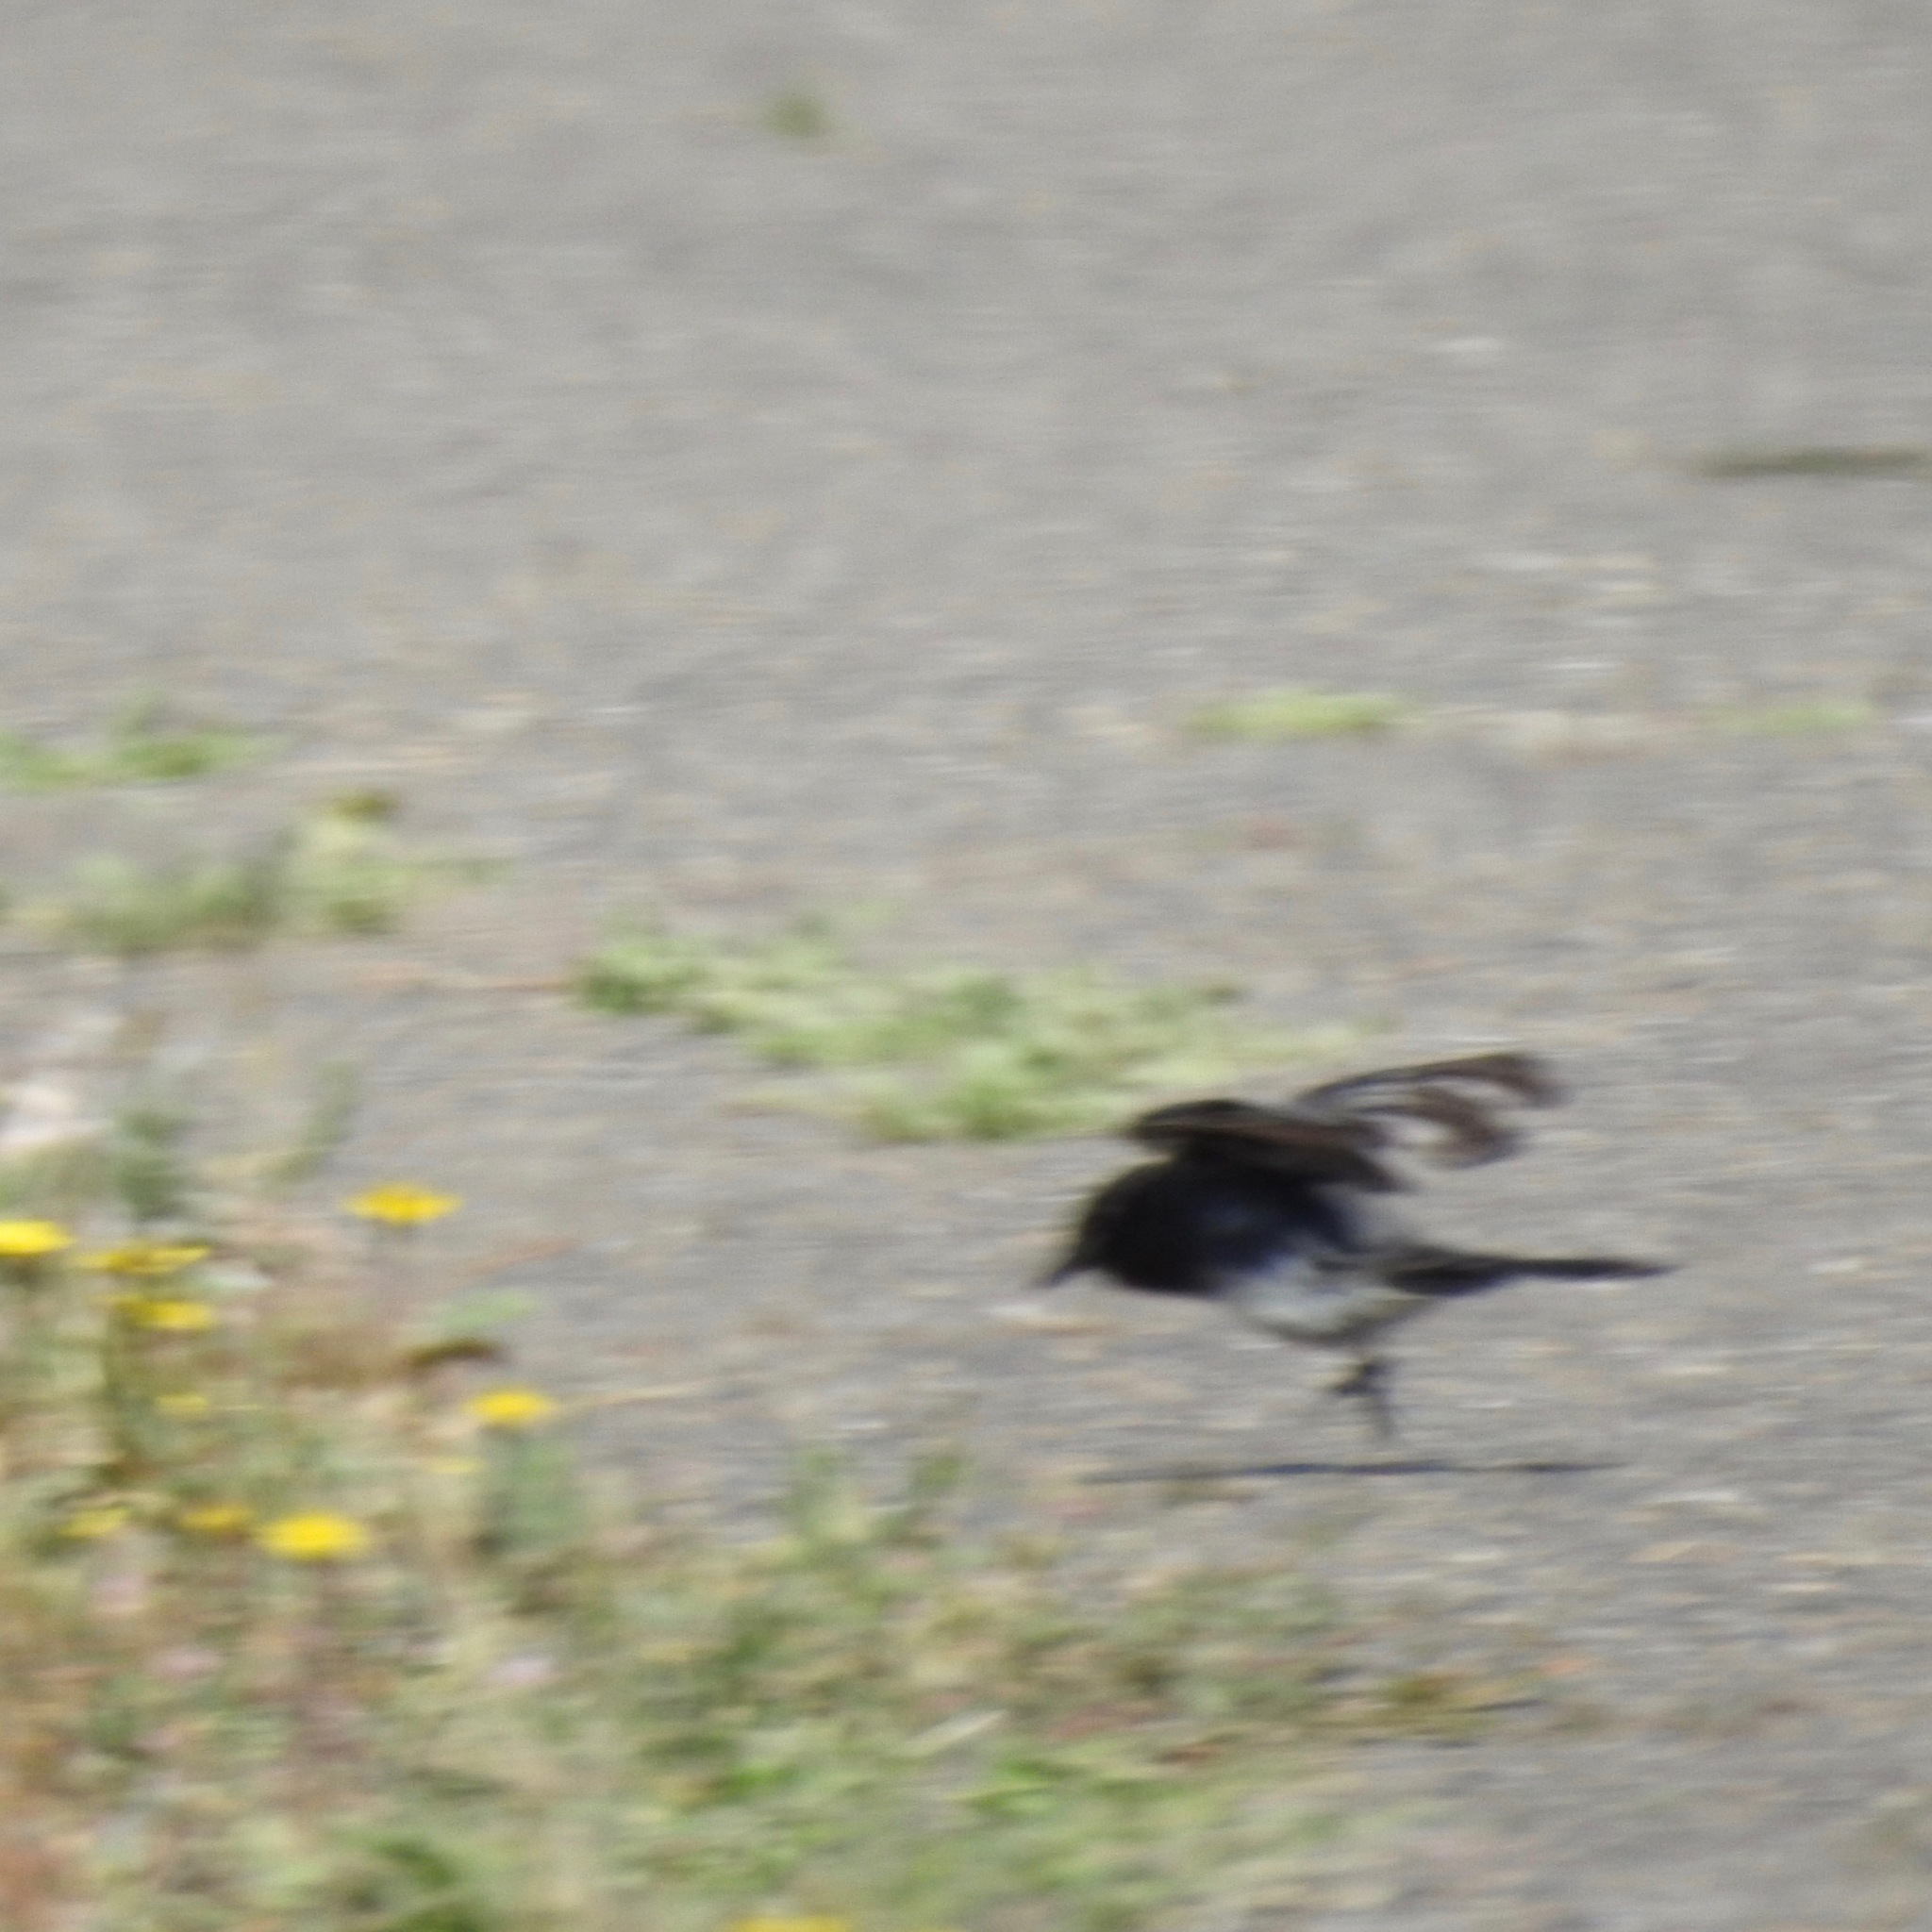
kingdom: Animalia
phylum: Chordata
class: Aves
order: Passeriformes
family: Tyrannidae
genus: Sayornis
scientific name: Sayornis nigricans
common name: Black phoebe
